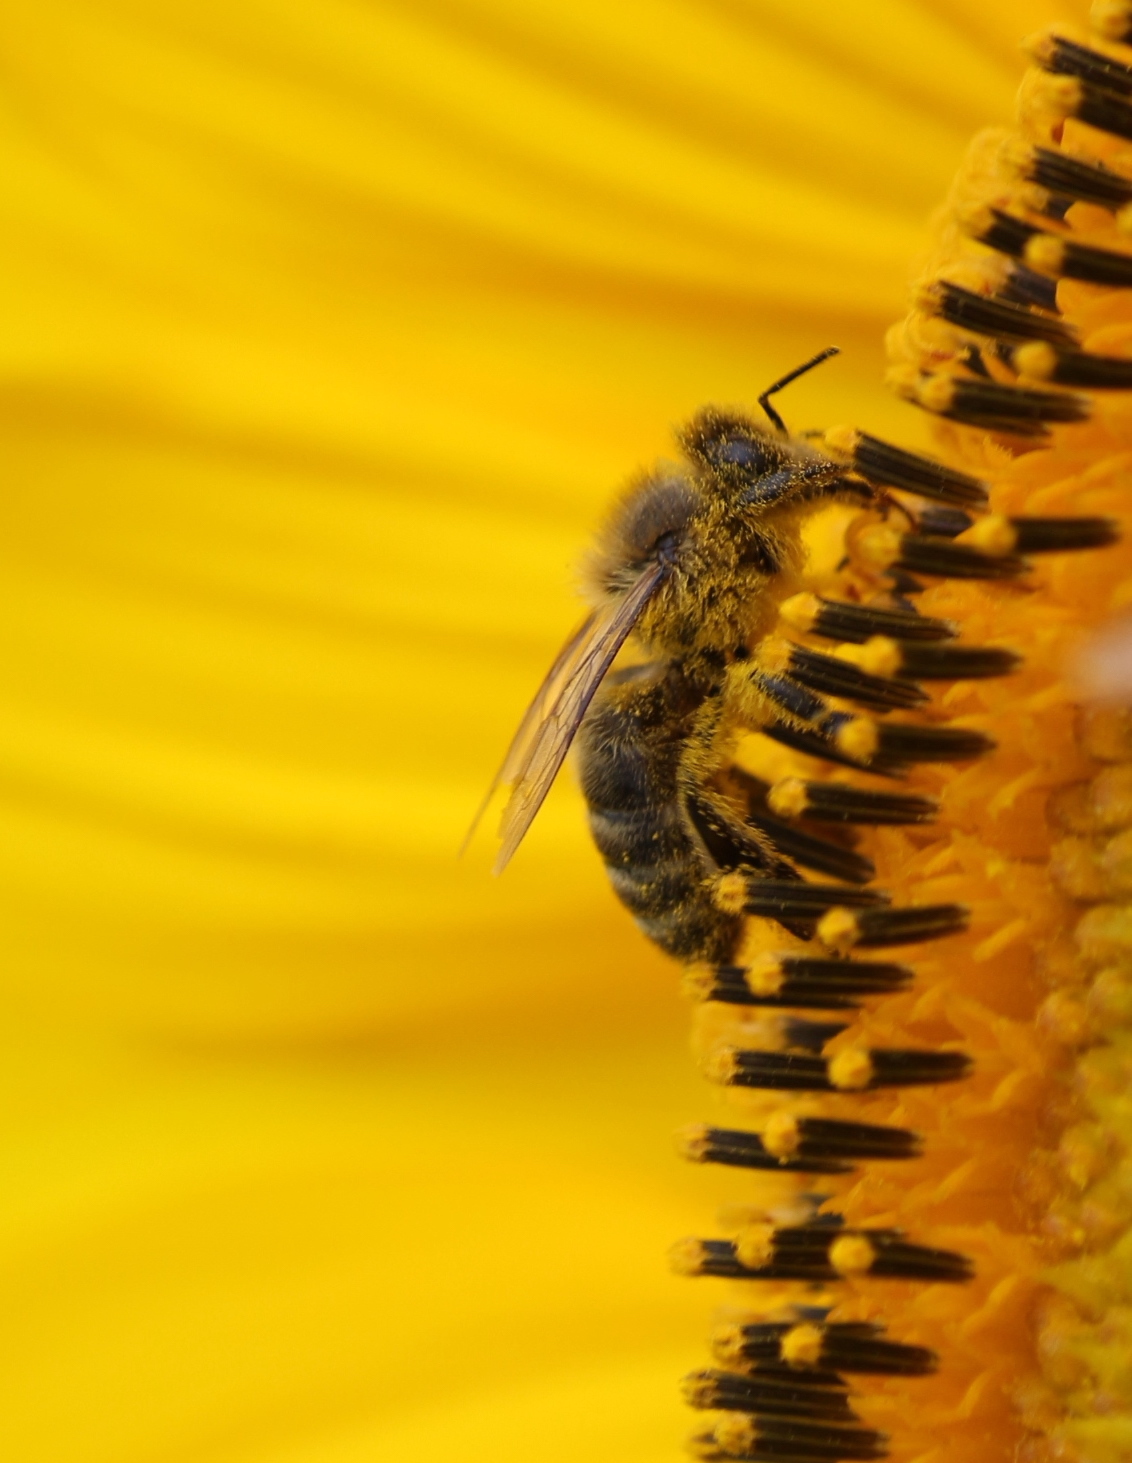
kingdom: Animalia
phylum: Arthropoda
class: Insecta
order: Hymenoptera
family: Apidae
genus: Apis
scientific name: Apis mellifera
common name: Honey bee
